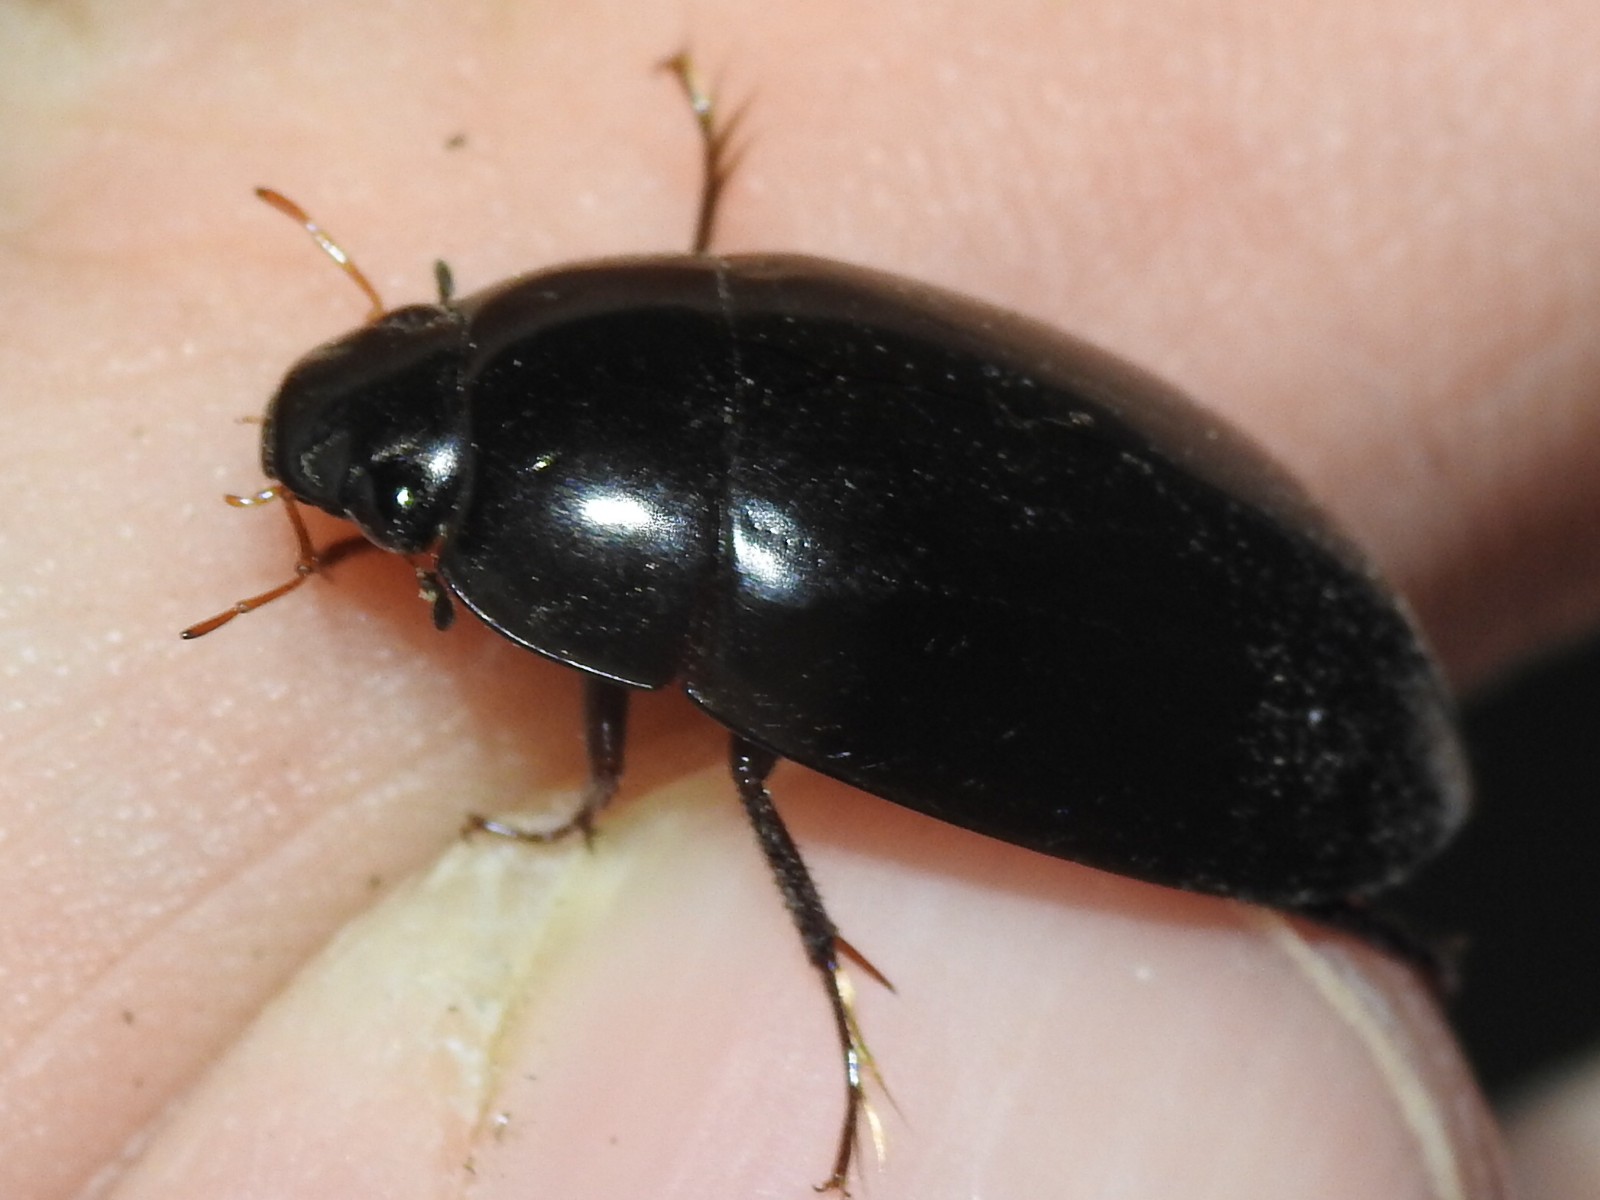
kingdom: Animalia
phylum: Arthropoda
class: Insecta
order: Coleoptera
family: Hydrophilidae
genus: Hydrochara
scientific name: Hydrochara
